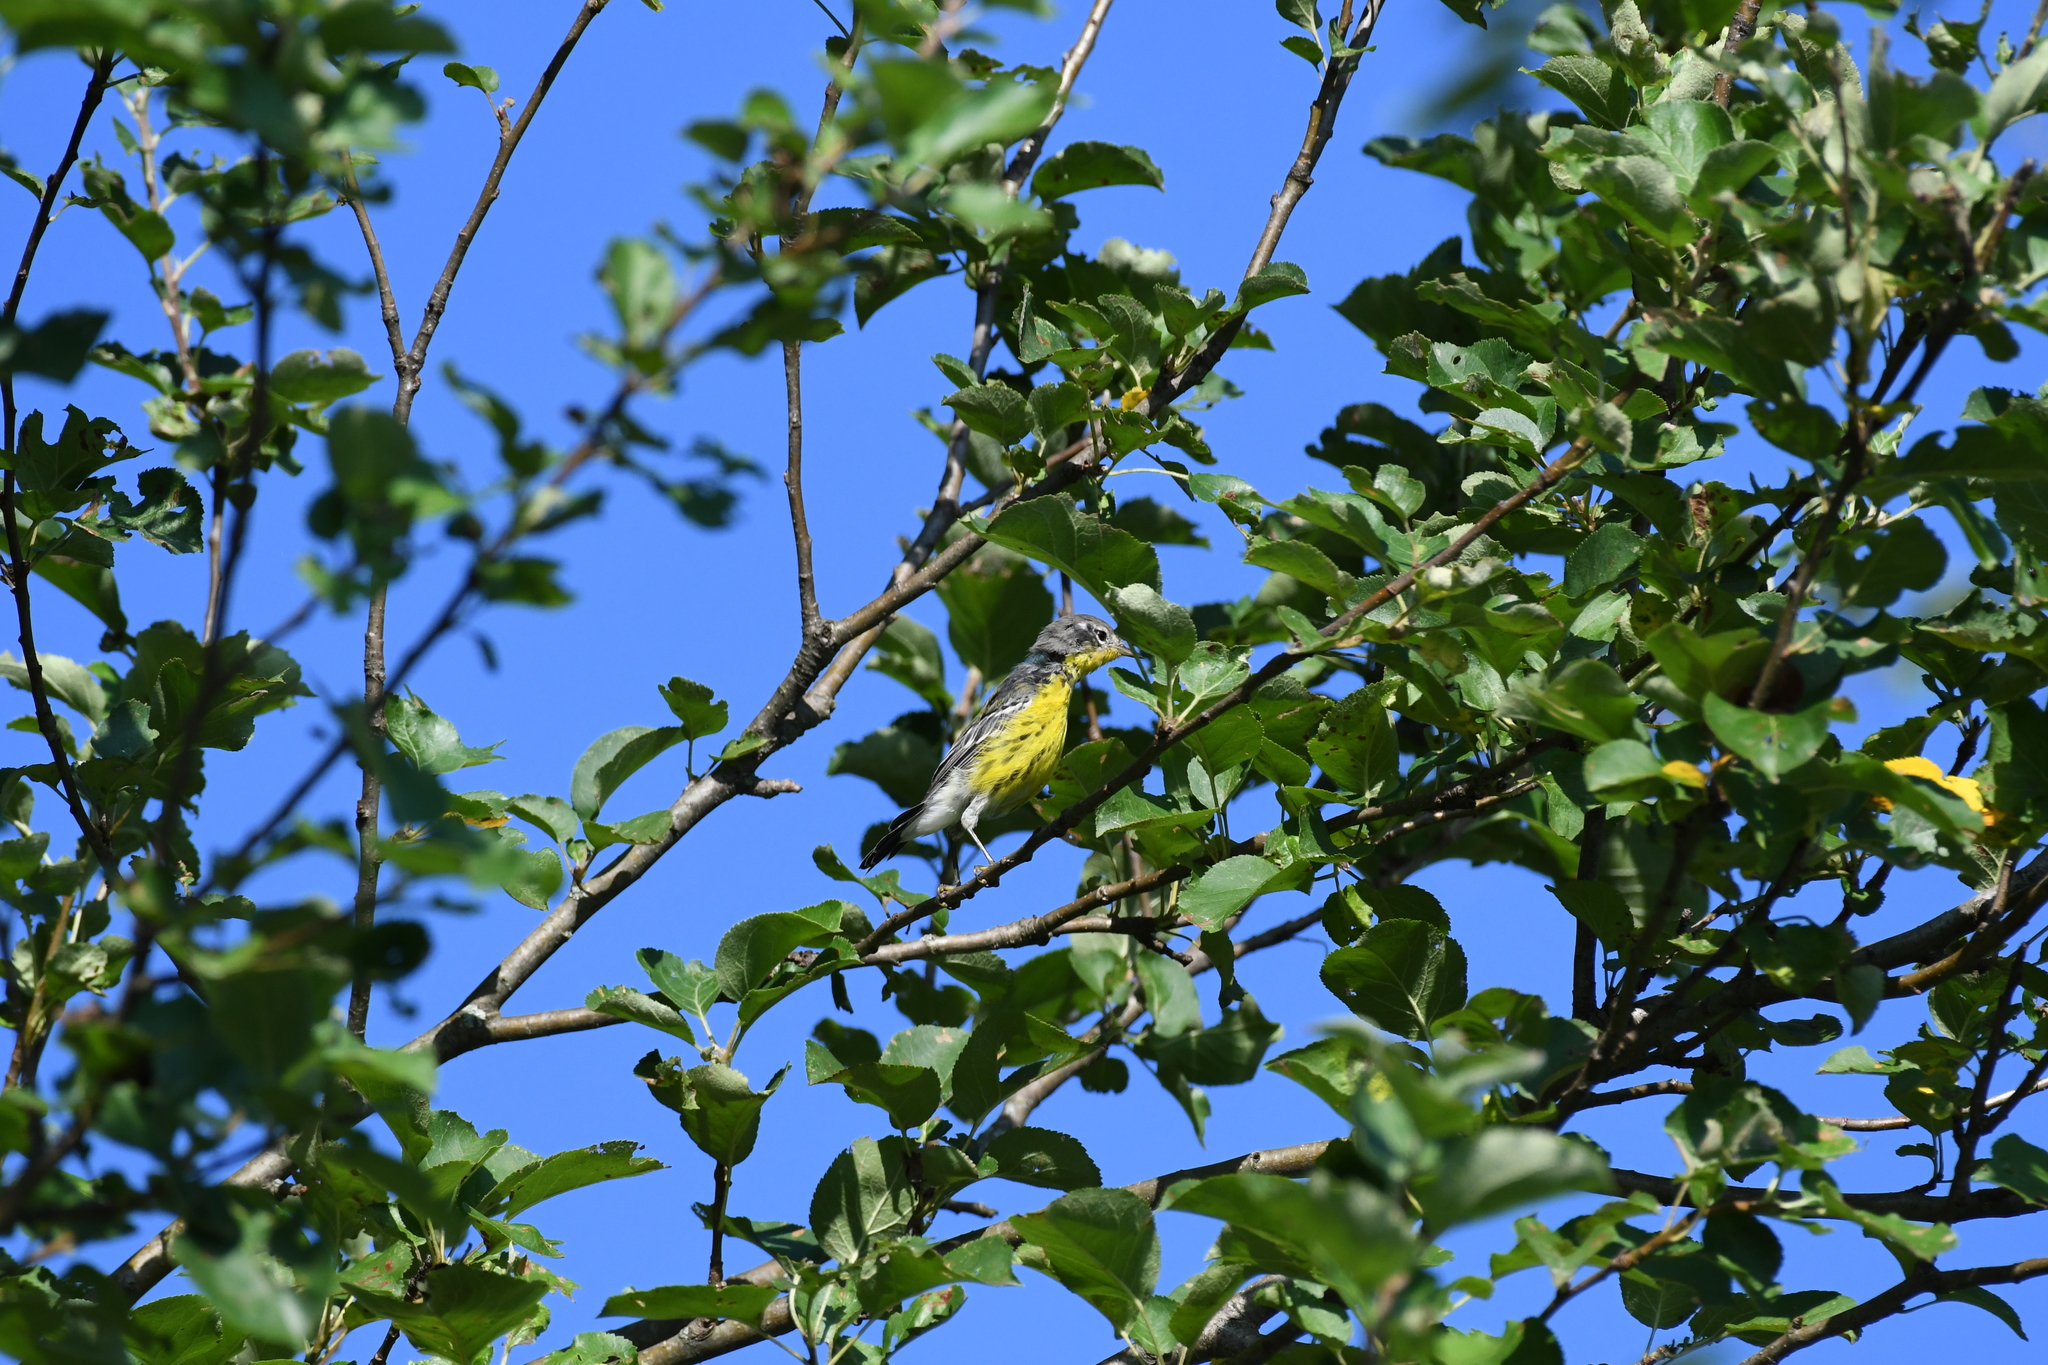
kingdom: Animalia
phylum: Chordata
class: Aves
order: Passeriformes
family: Parulidae
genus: Setophaga
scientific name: Setophaga magnolia
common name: Magnolia warbler
